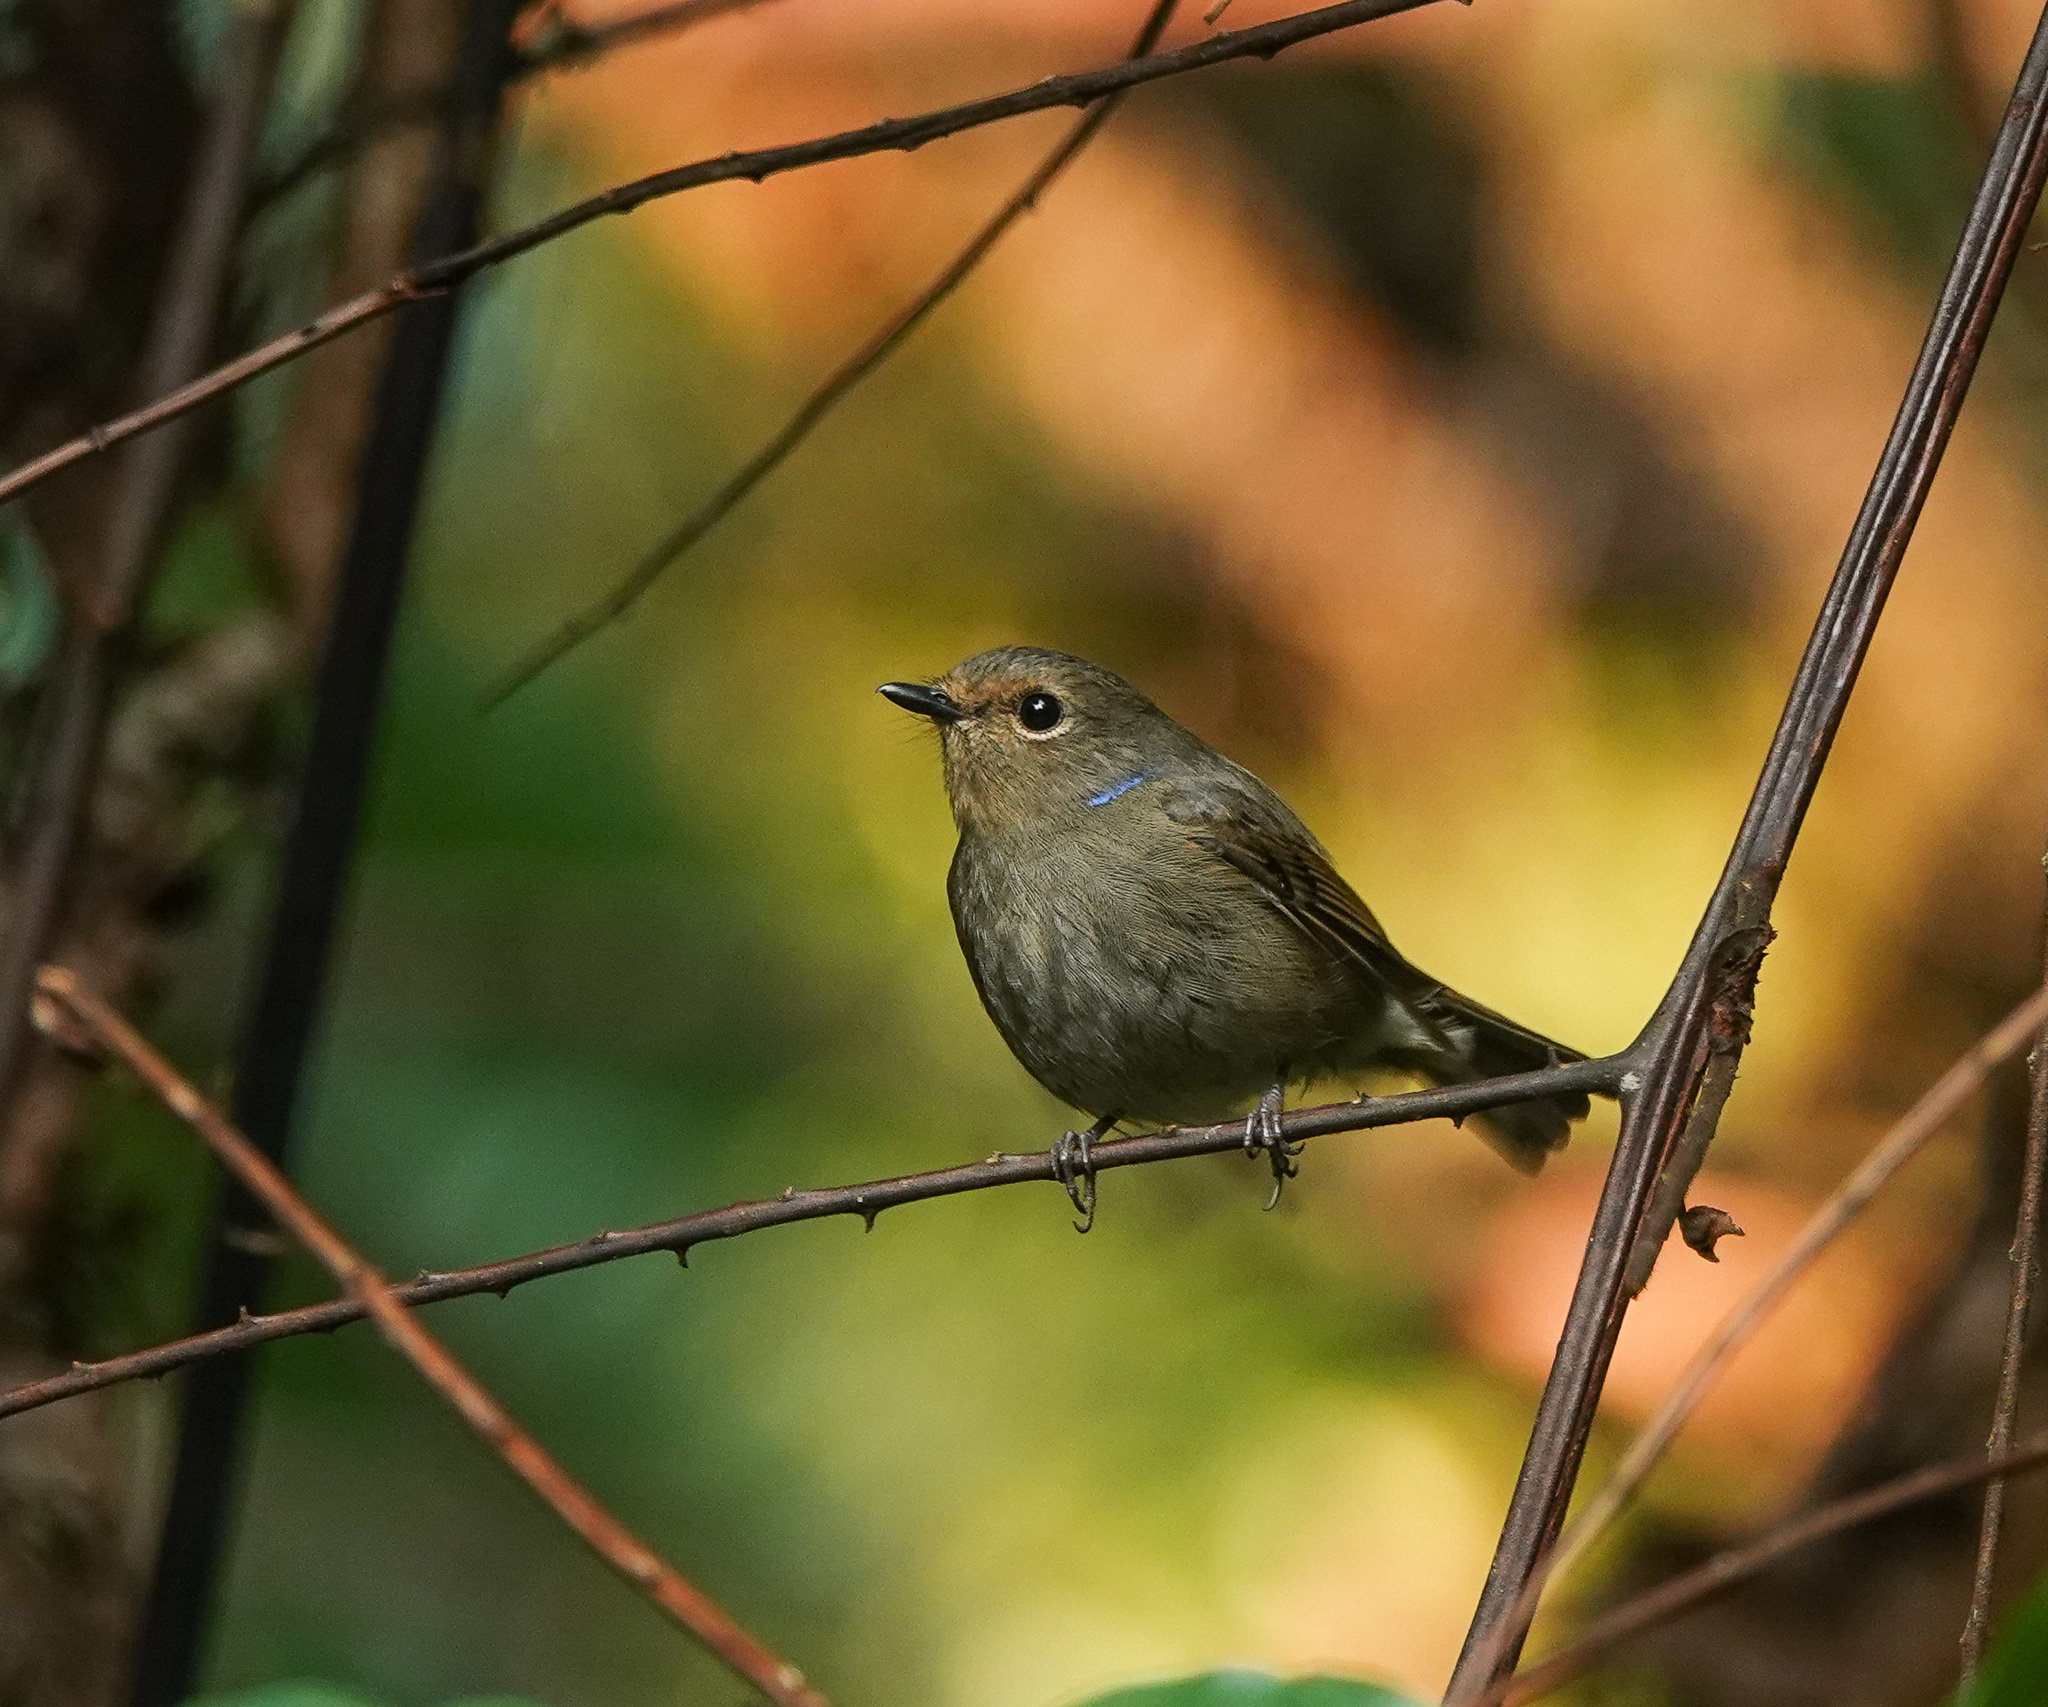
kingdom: Animalia
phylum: Chordata
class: Aves
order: Passeriformes
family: Muscicapidae
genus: Niltava
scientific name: Niltava macgrigoriae
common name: Small niltava
